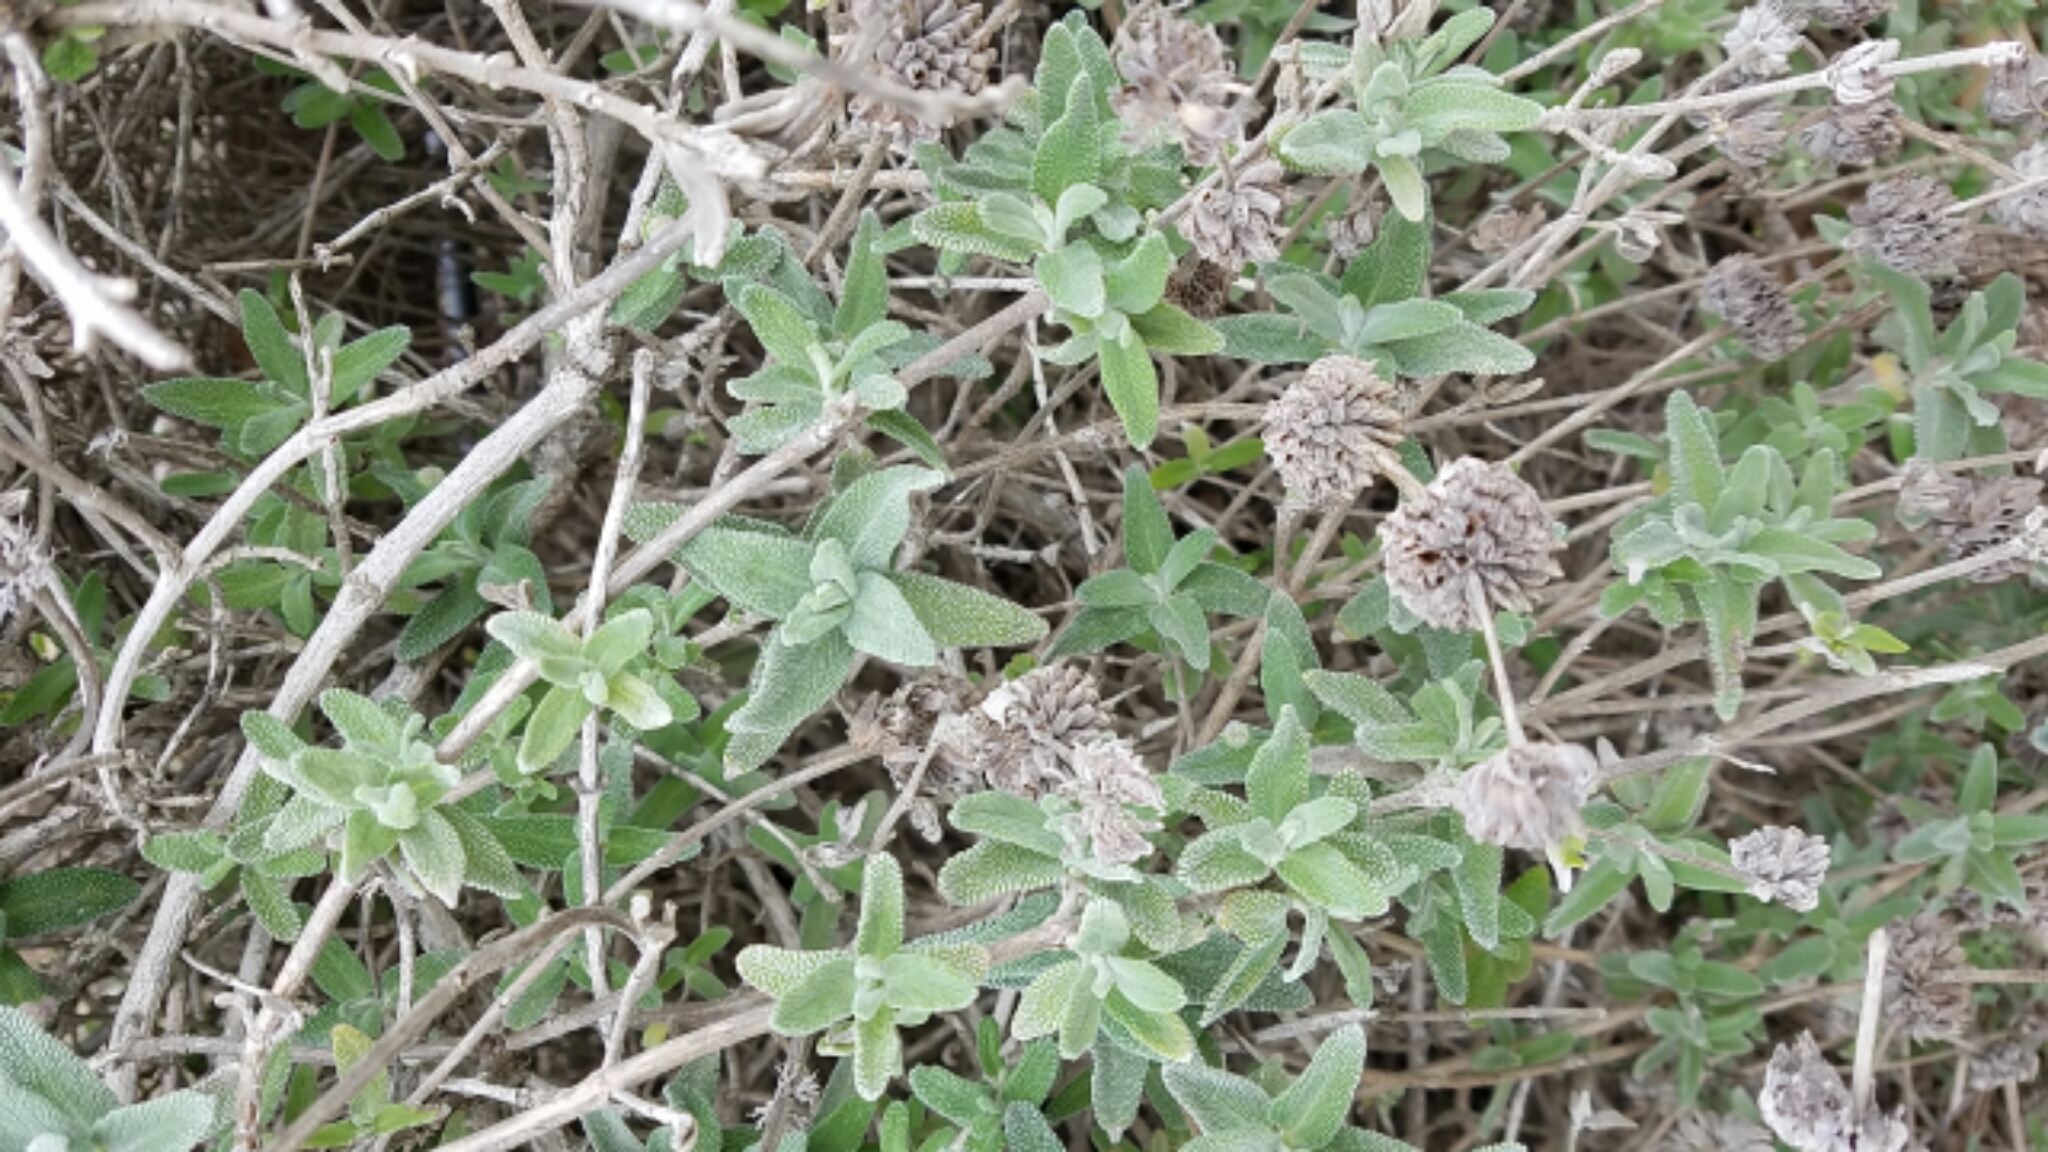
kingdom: Plantae
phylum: Tracheophyta
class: Magnoliopsida
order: Lamiales
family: Lamiaceae
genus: Salvia
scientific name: Salvia leucophylla
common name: Purple sage
